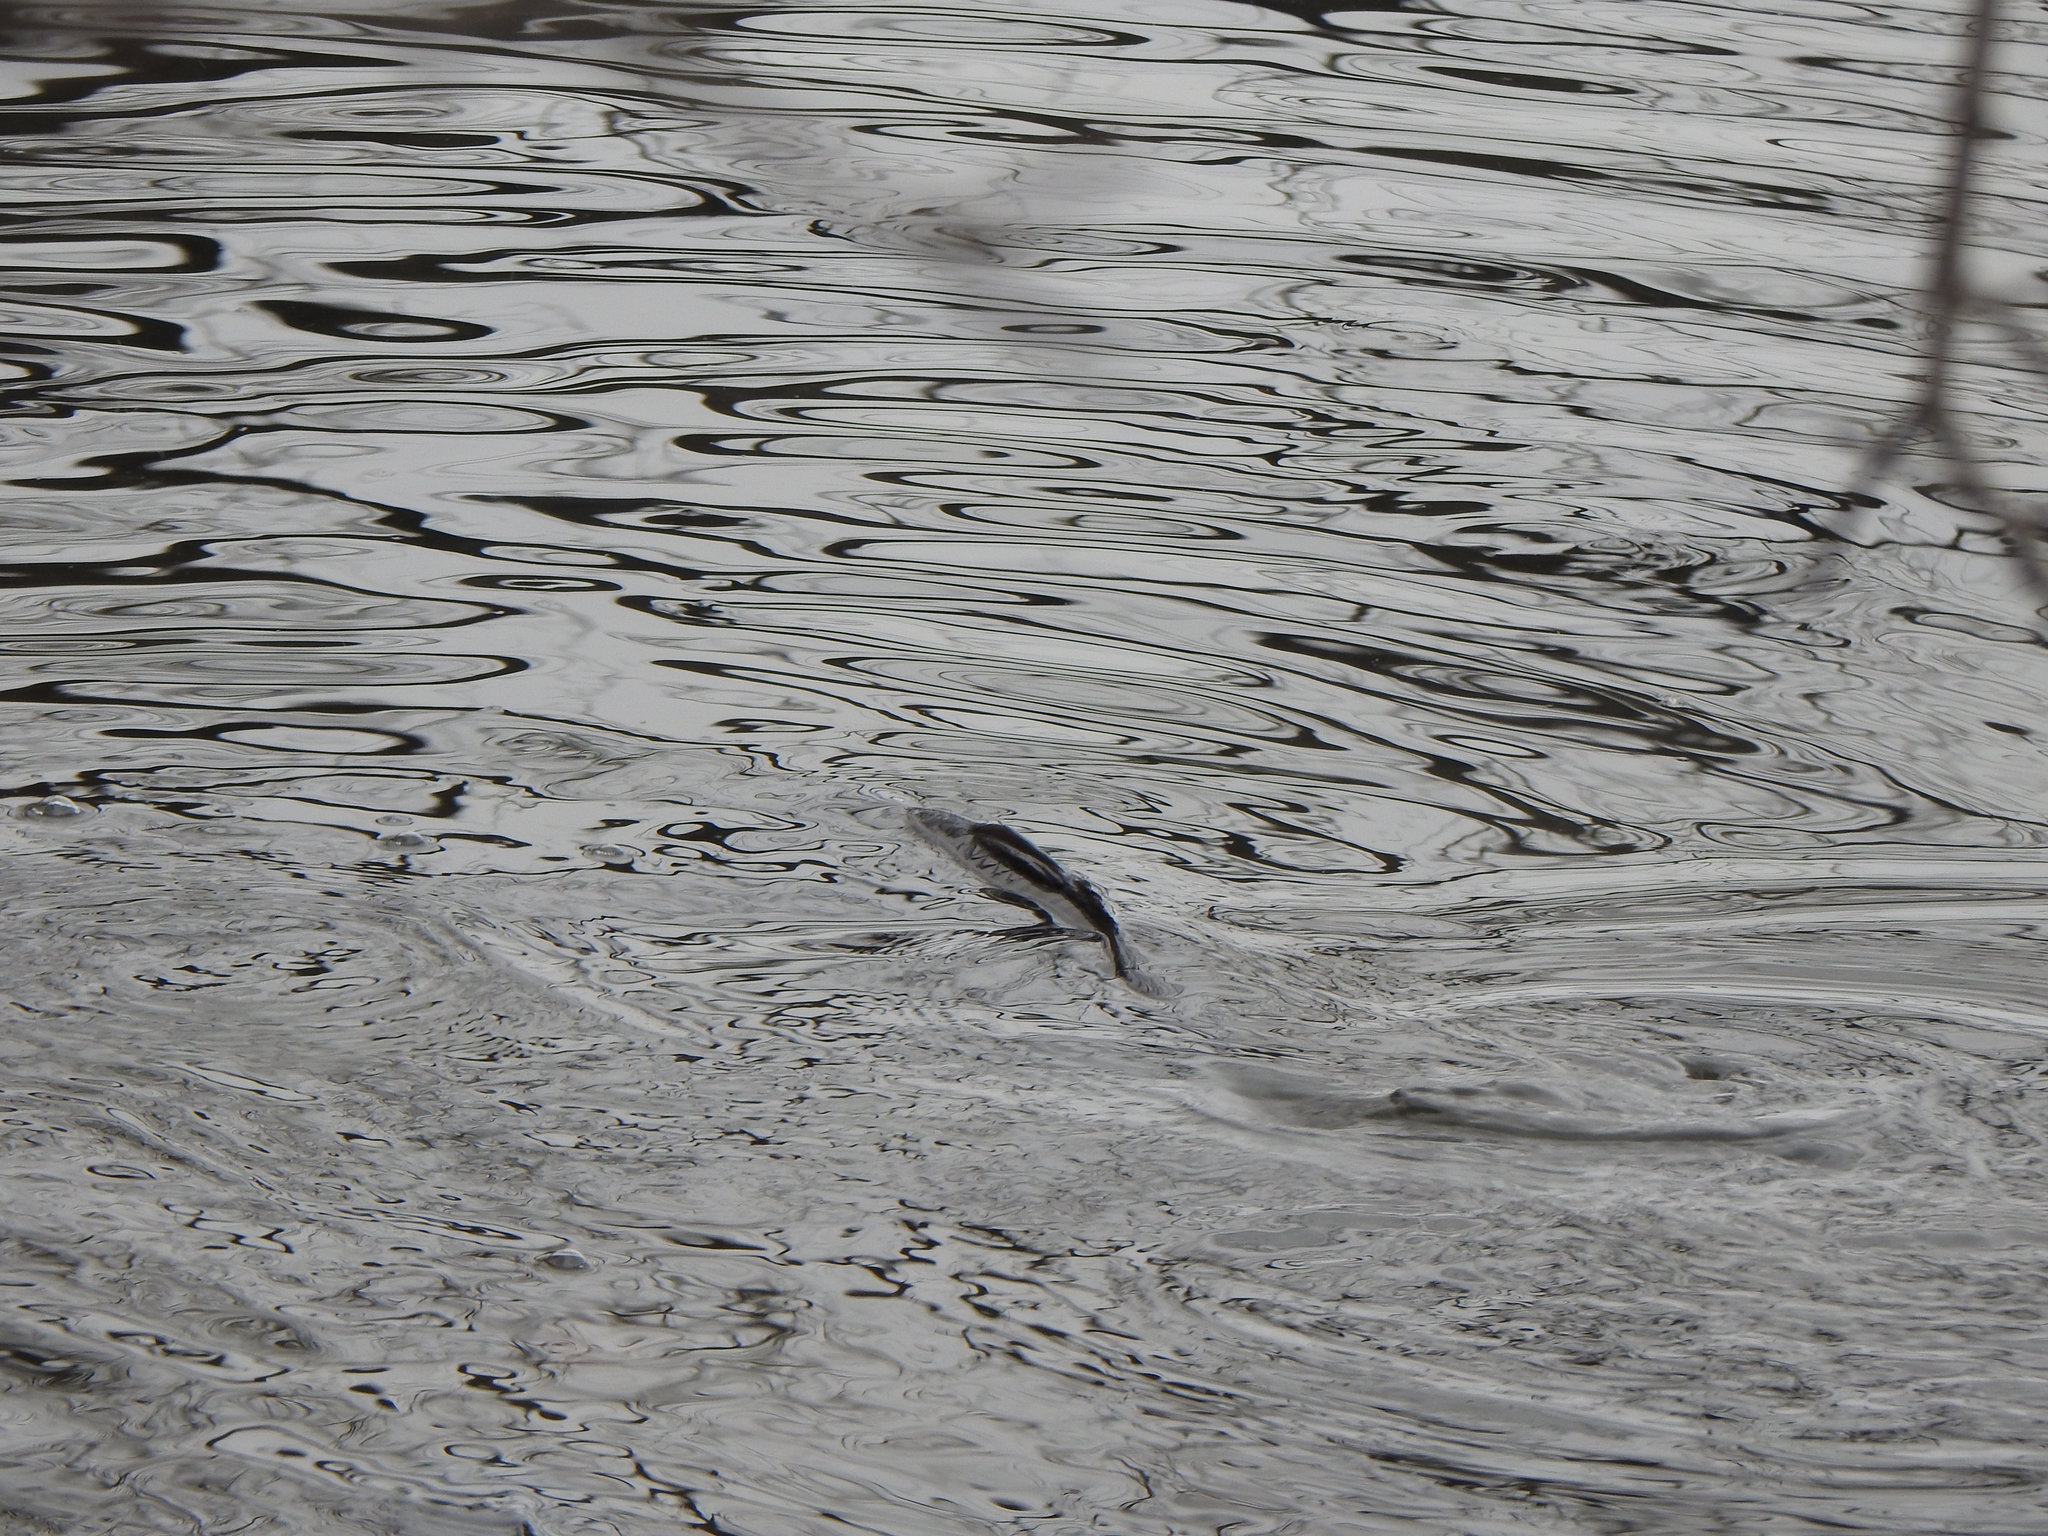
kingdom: Animalia
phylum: Chordata
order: Cypriniformes
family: Cyprinidae
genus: Cyprinus
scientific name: Cyprinus carpio
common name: Common carp
